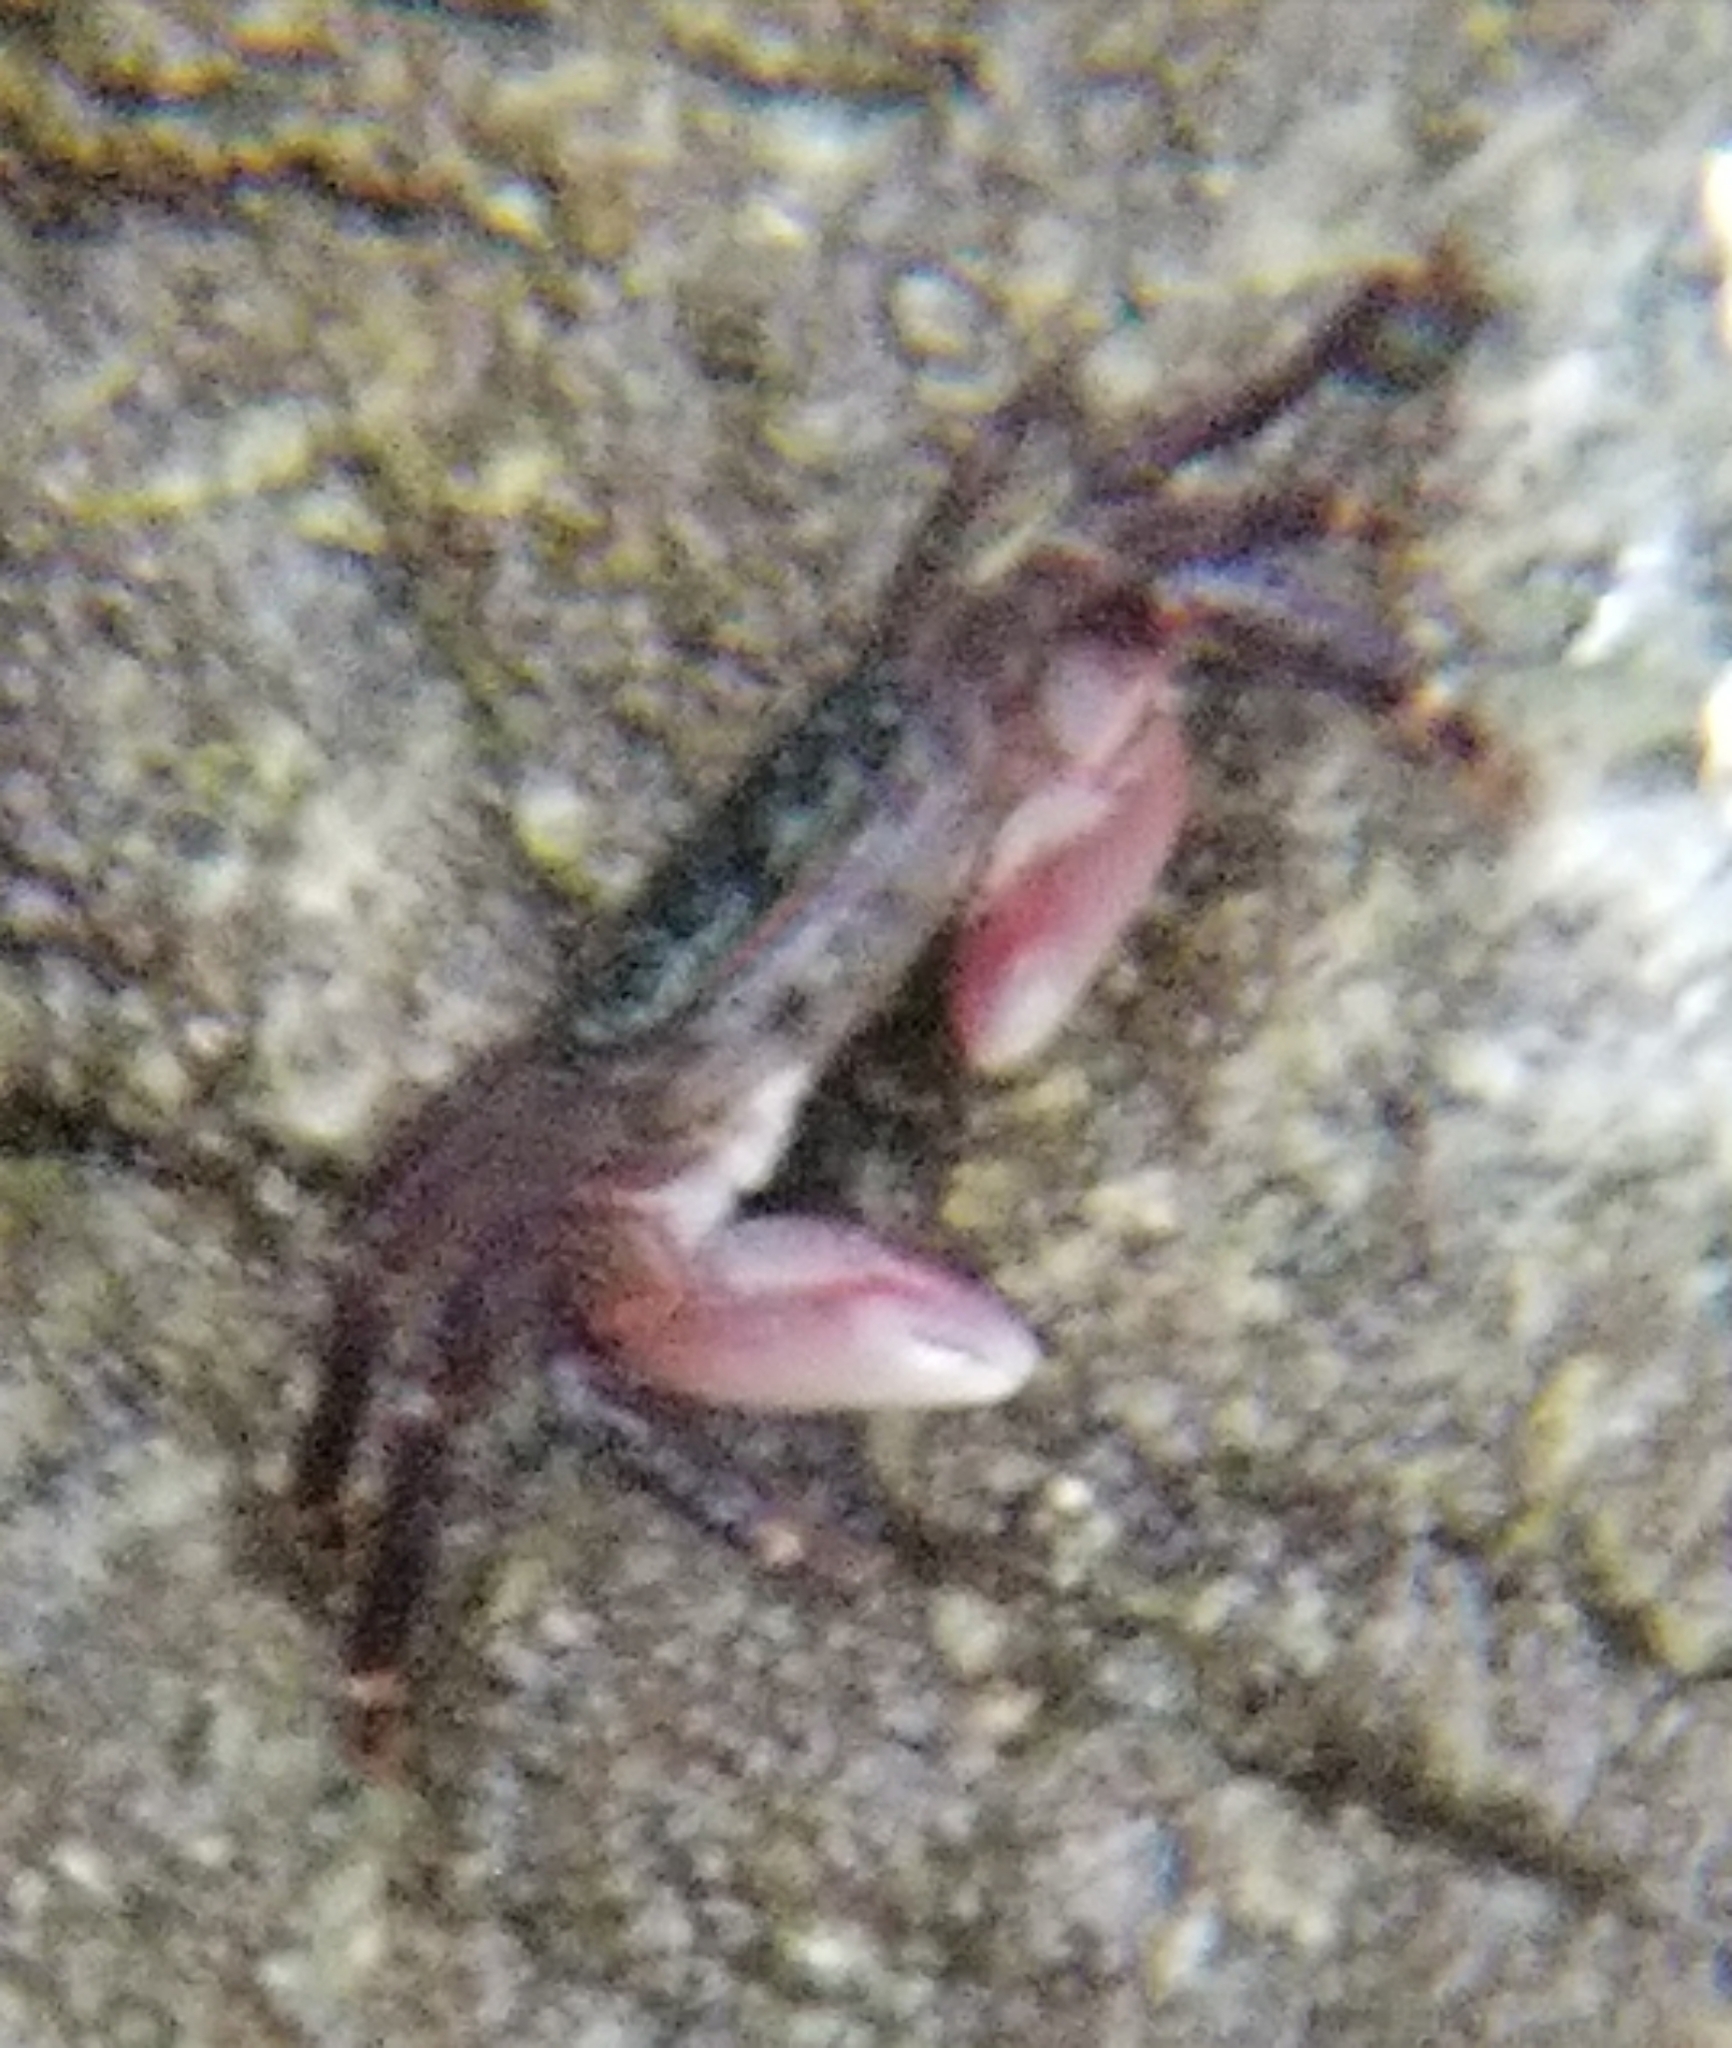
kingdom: Animalia
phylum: Arthropoda
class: Malacostraca
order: Decapoda
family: Grapsidae
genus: Pachygrapsus
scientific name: Pachygrapsus crassipes
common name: Striped shore crab
